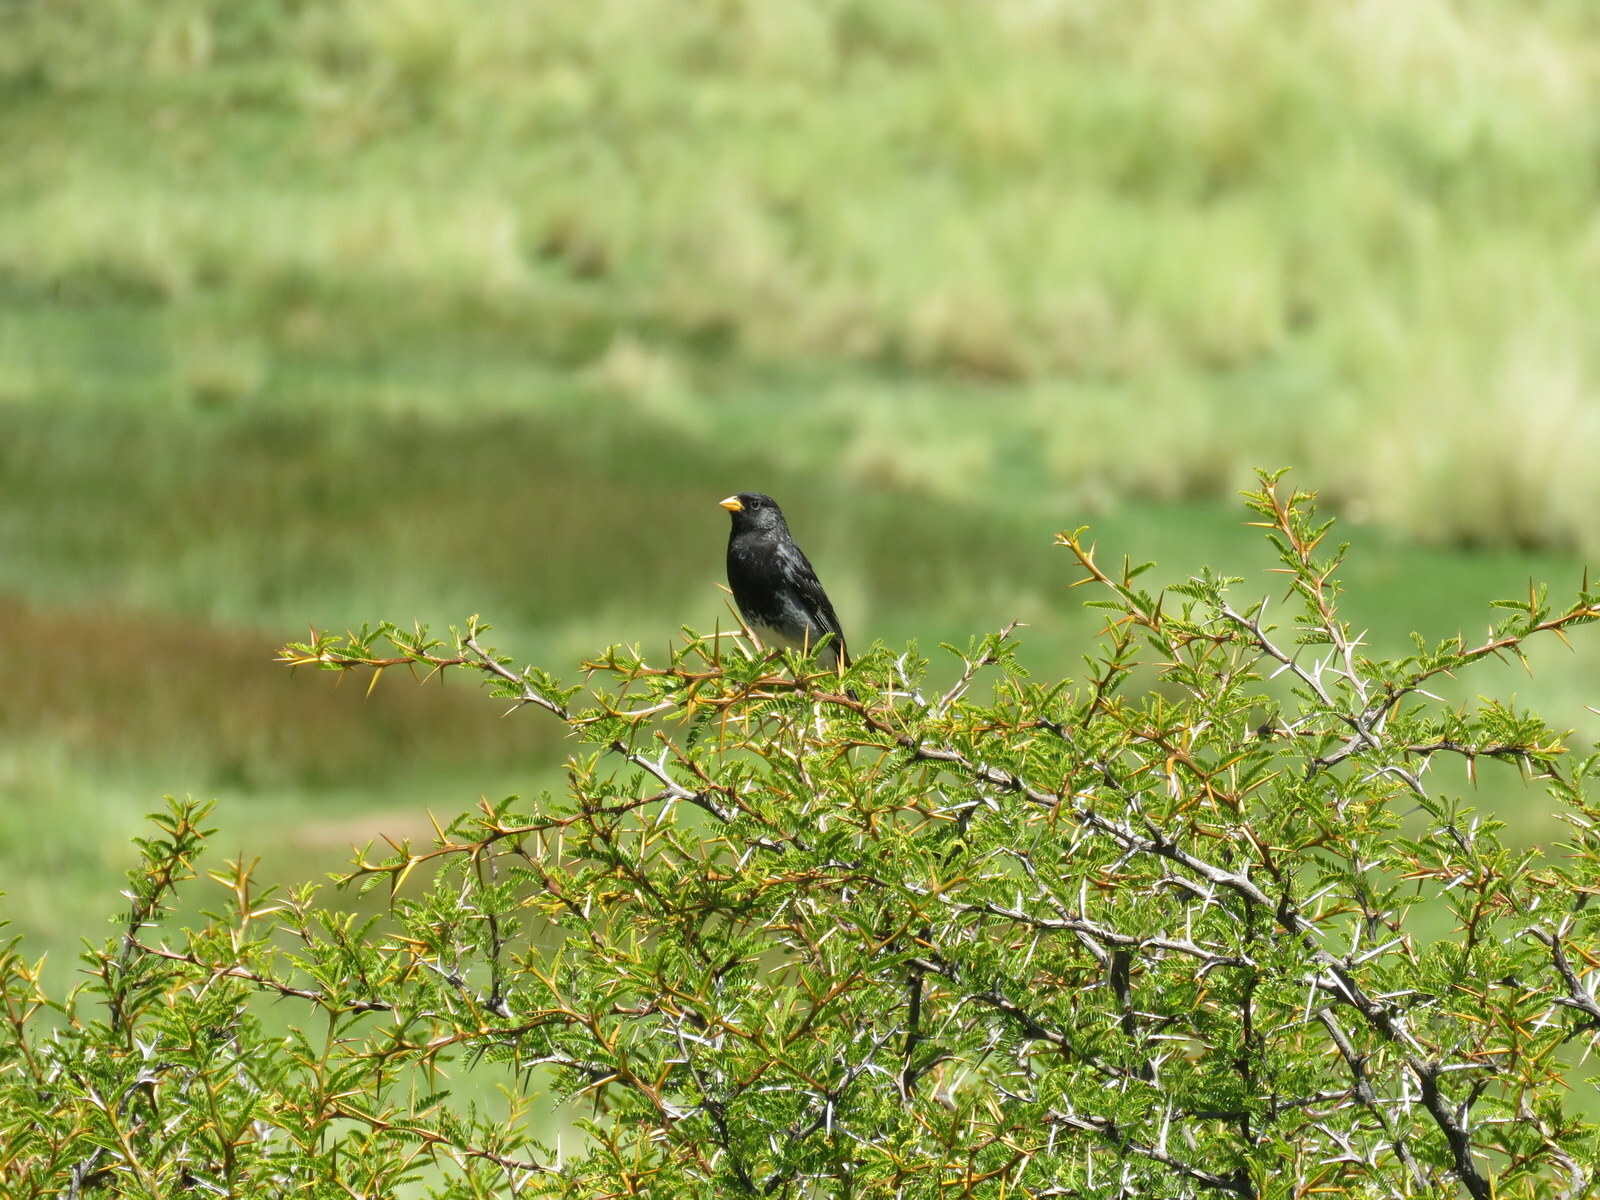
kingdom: Animalia
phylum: Chordata
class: Aves
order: Passeriformes
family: Thraupidae
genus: Rhopospina
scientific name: Rhopospina fruticeti
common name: Mourning sierra finch
